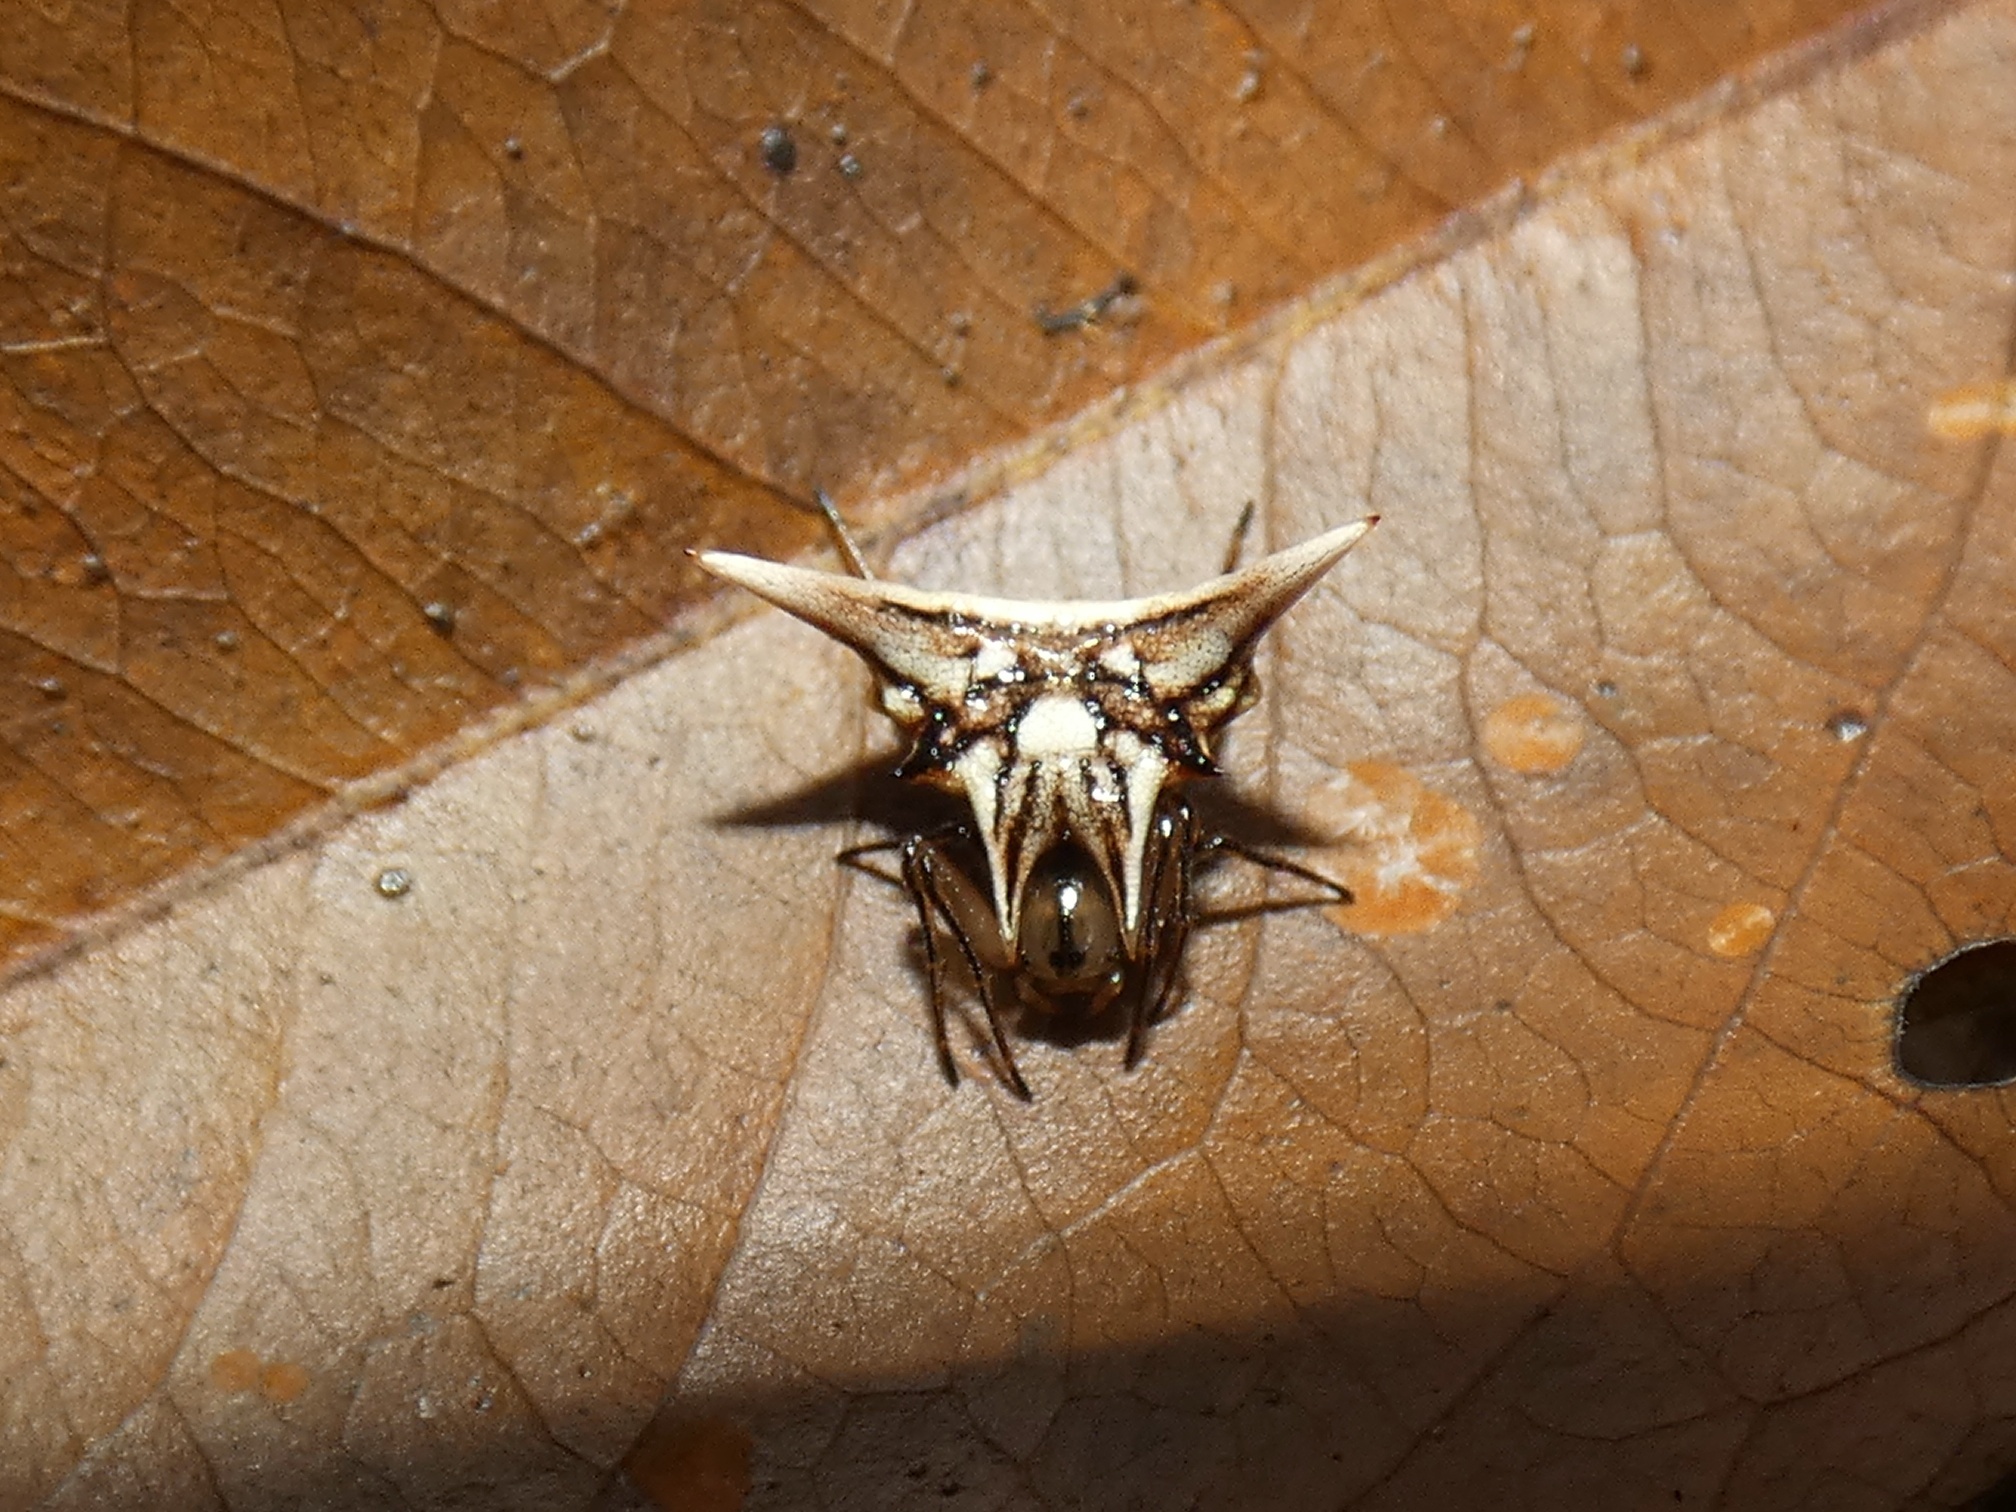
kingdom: Animalia
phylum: Arthropoda
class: Arachnida
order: Araneae
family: Araneidae
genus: Micrathena
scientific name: Micrathena evansi
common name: Orb weavers
